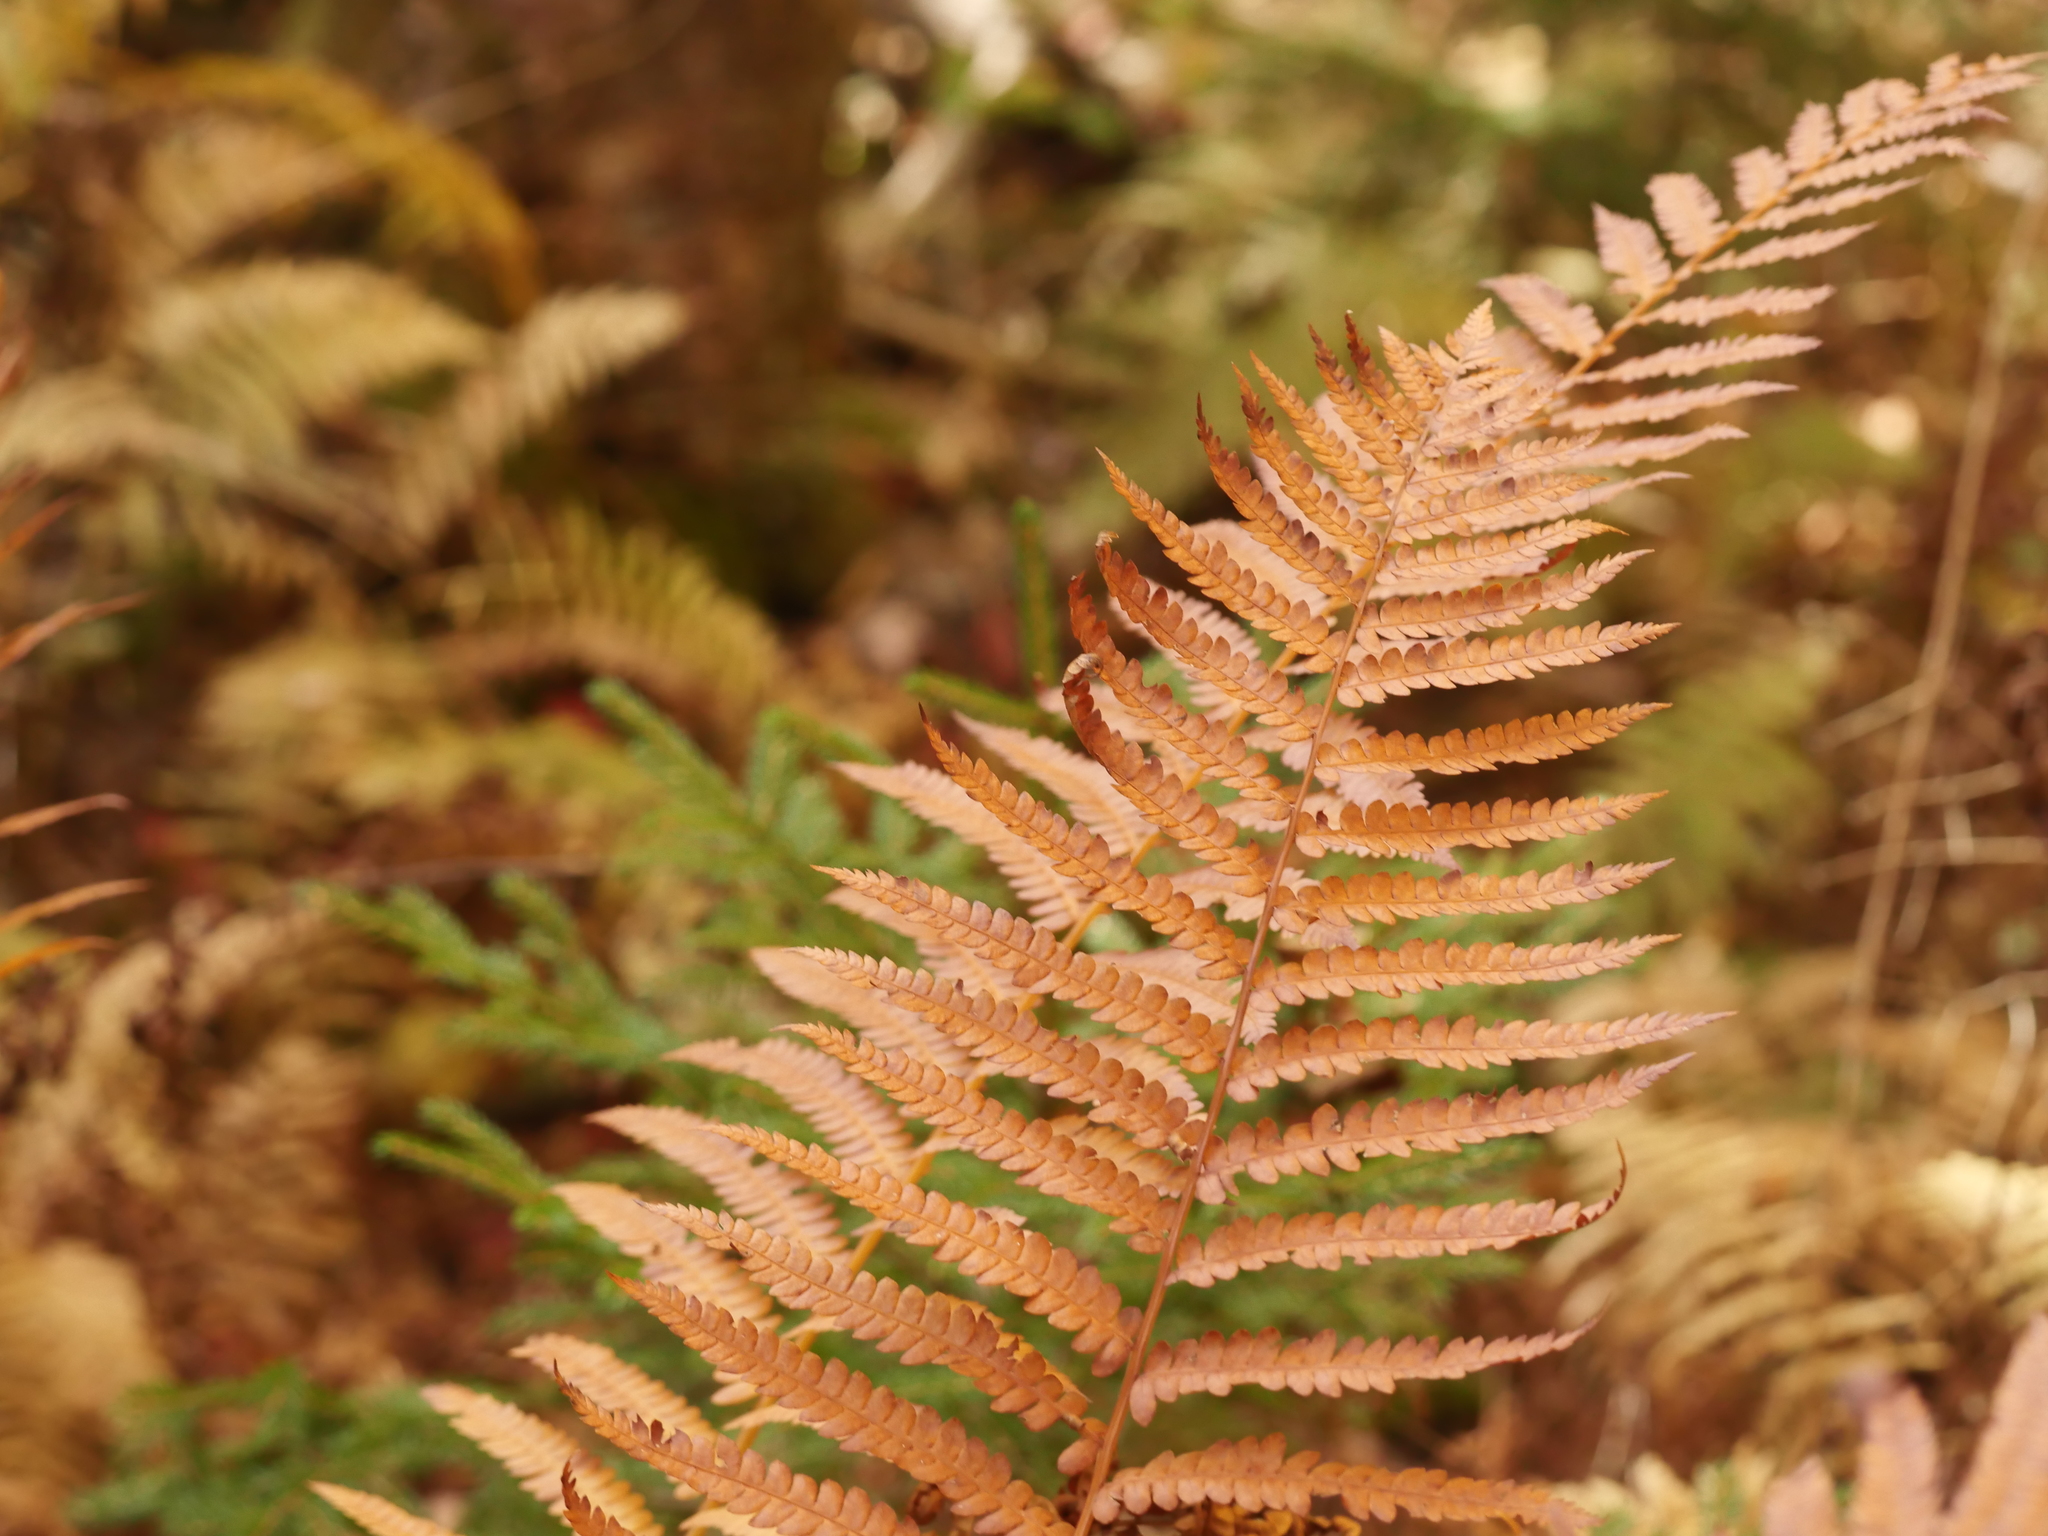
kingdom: Plantae
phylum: Tracheophyta
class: Polypodiopsida
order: Osmundales
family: Osmundaceae
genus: Osmundastrum
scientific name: Osmundastrum cinnamomeum
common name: Cinnamon fern
